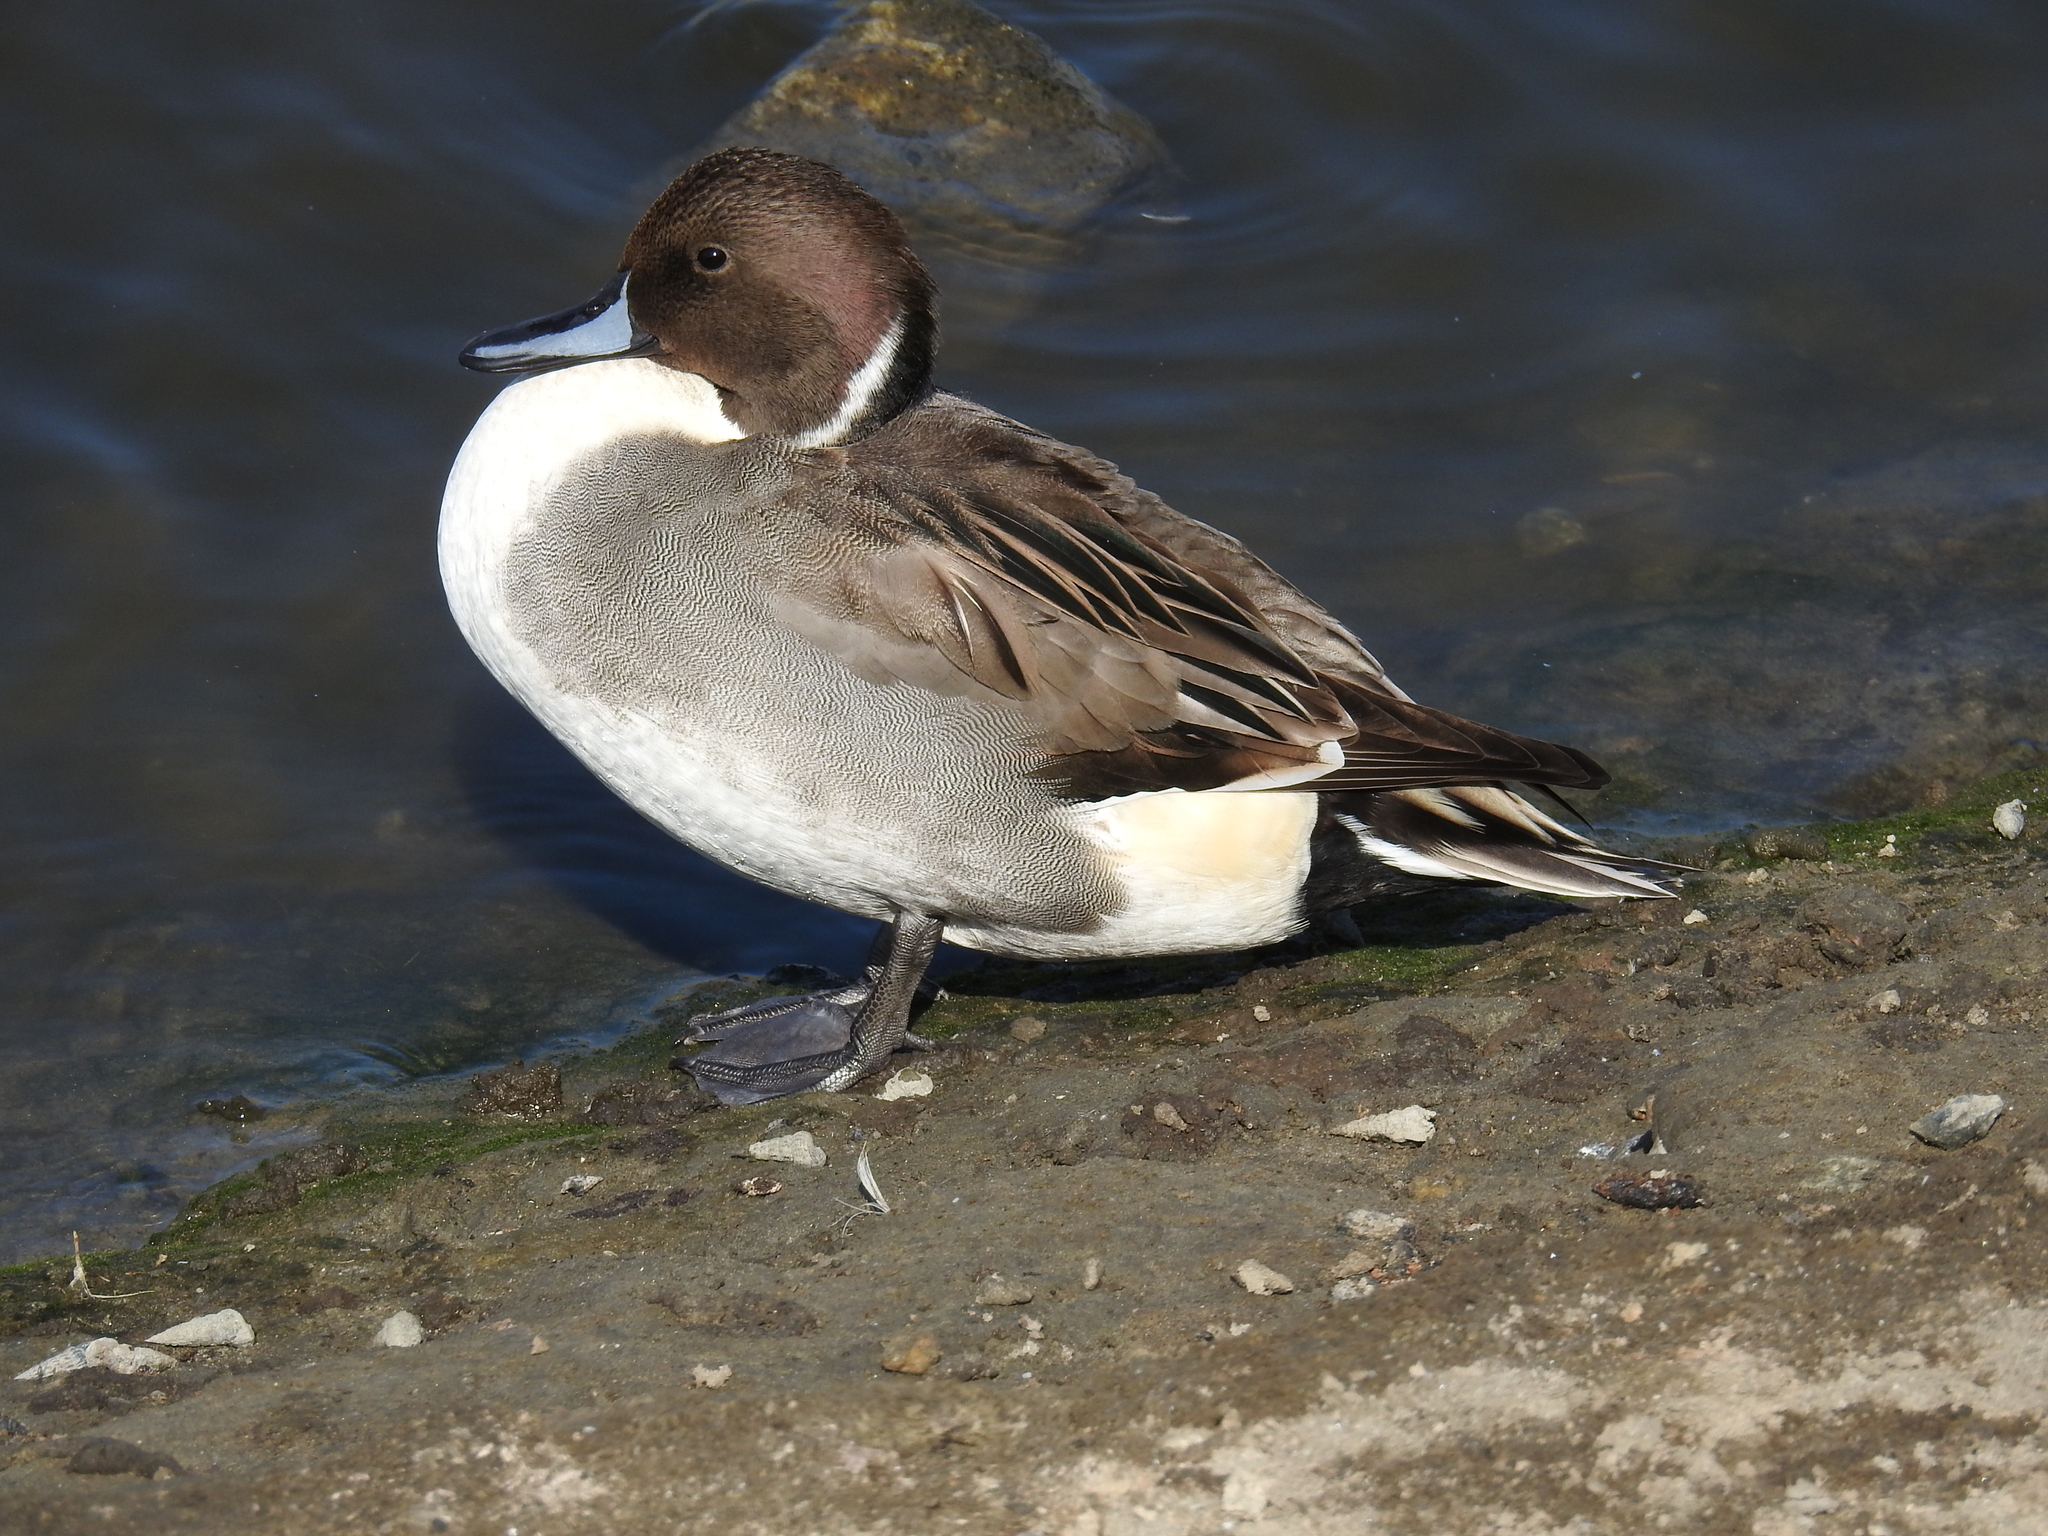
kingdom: Animalia
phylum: Chordata
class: Aves
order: Anseriformes
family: Anatidae
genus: Anas
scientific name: Anas acuta
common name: Northern pintail
